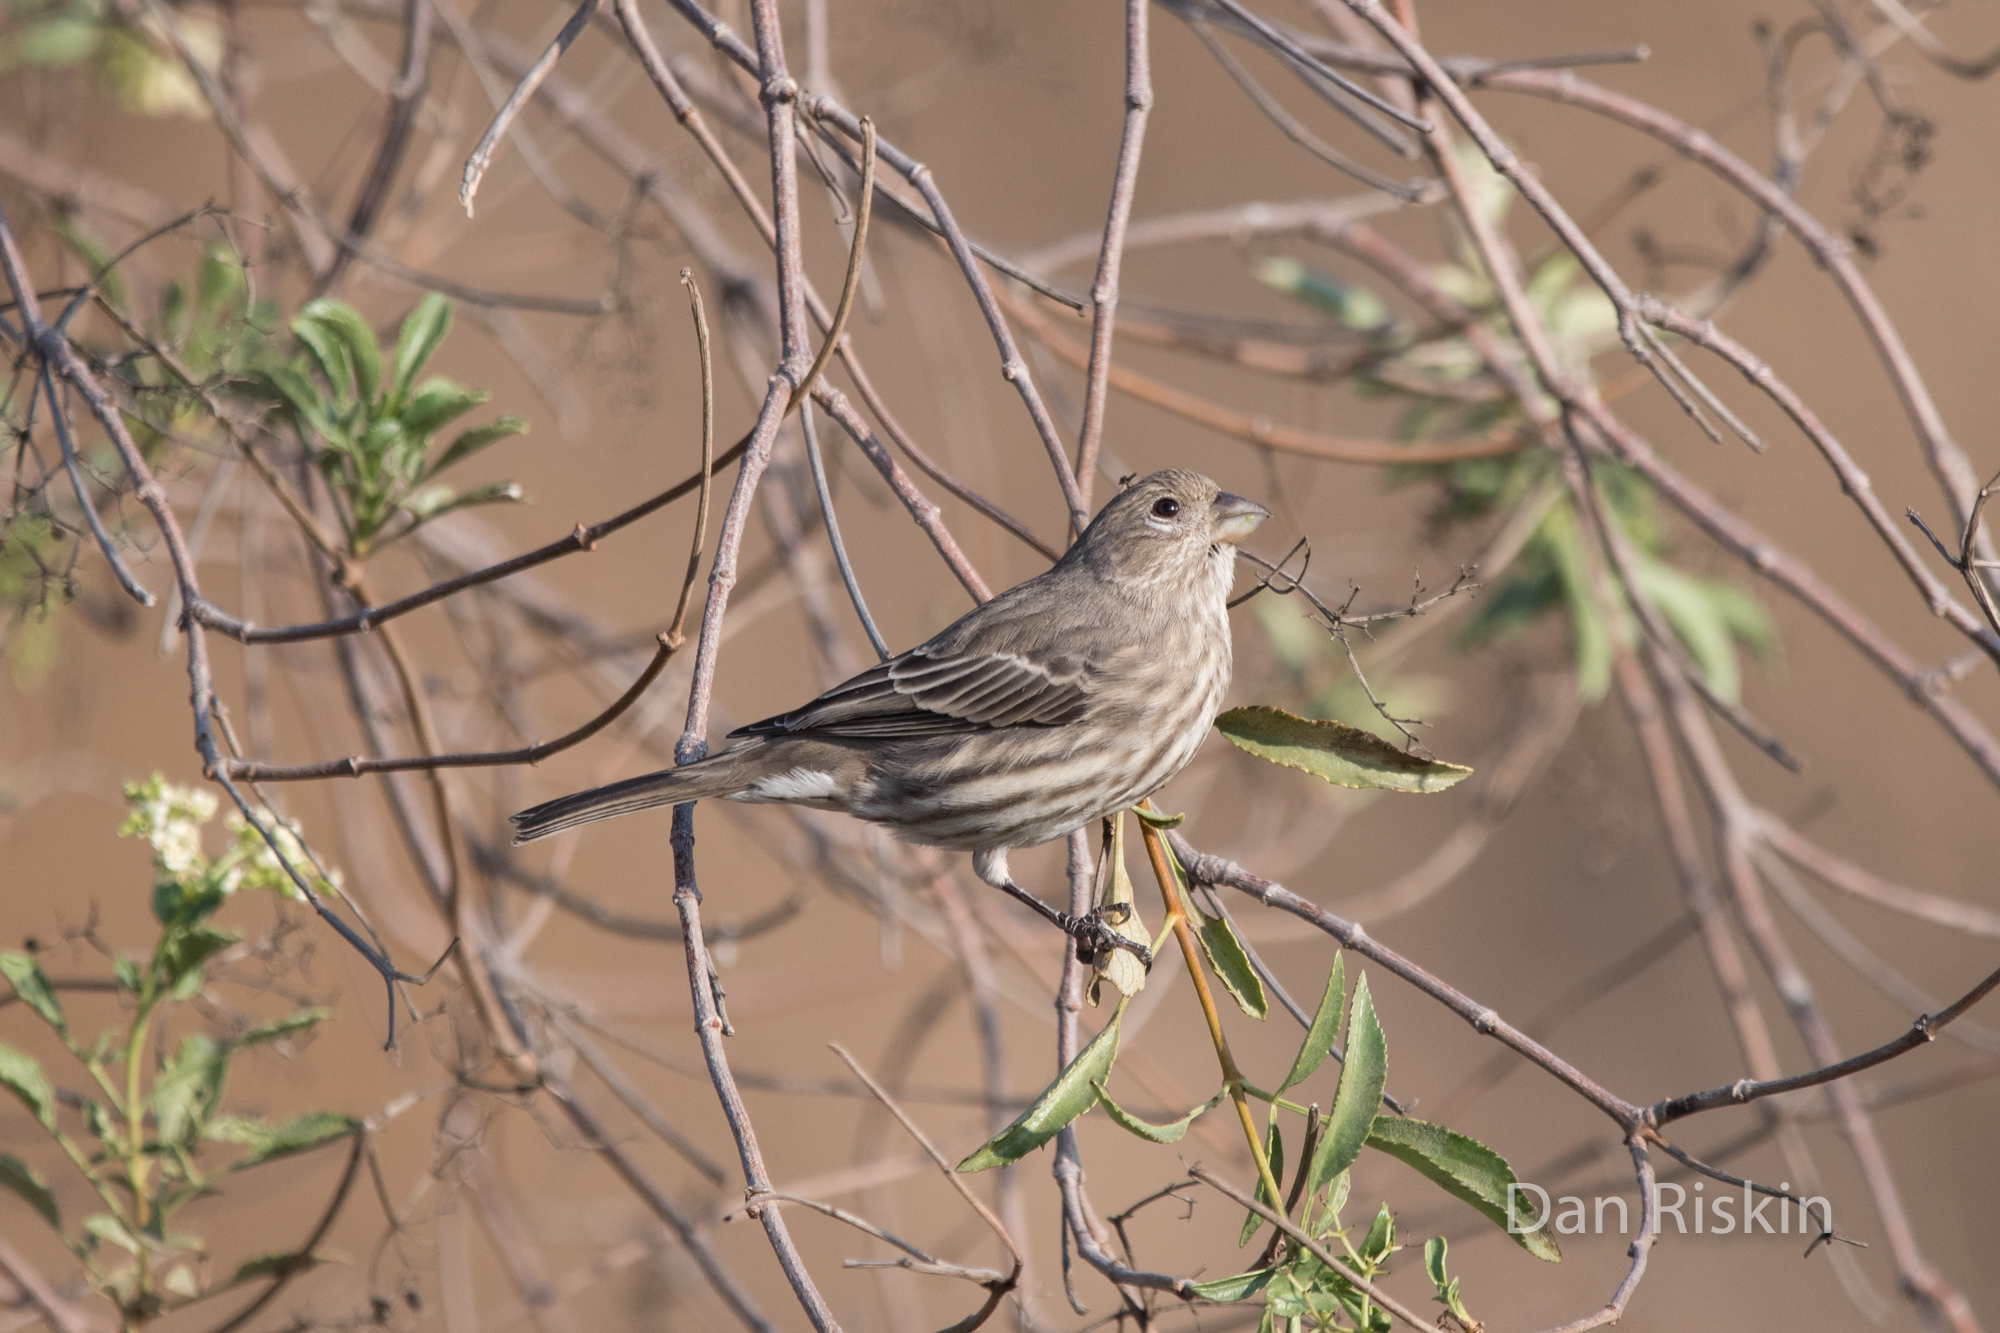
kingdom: Animalia
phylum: Chordata
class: Aves
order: Passeriformes
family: Fringillidae
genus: Haemorhous
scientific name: Haemorhous mexicanus
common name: House finch
